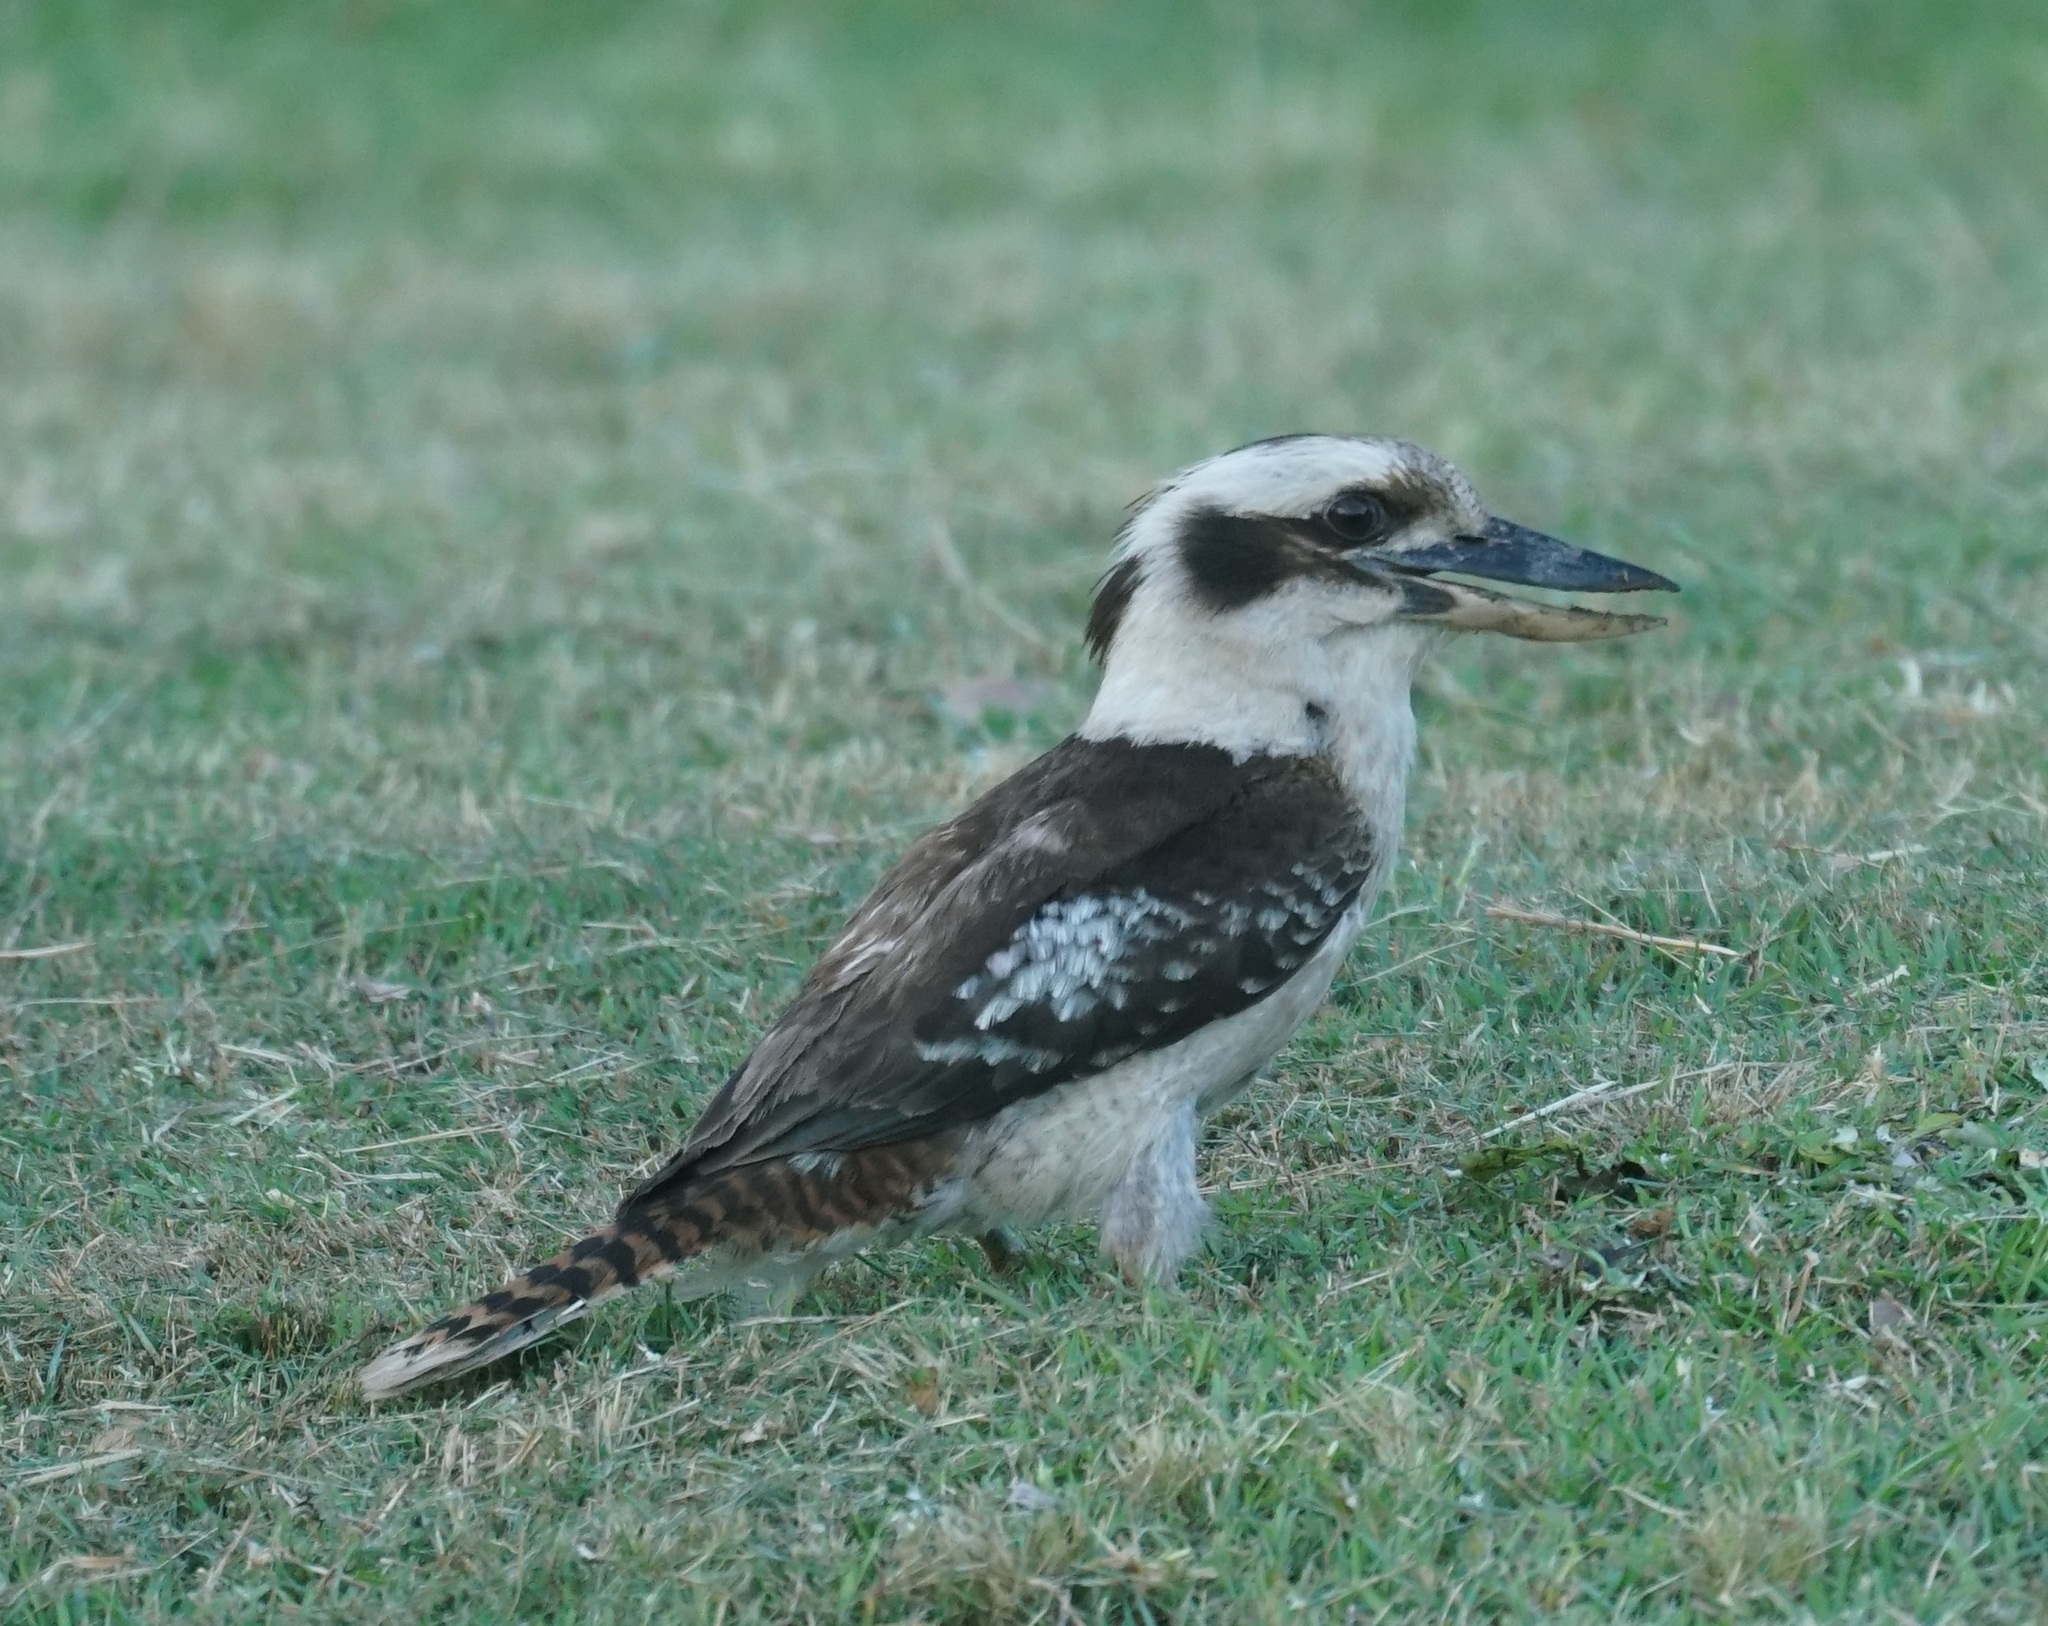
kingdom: Animalia
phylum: Chordata
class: Aves
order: Coraciiformes
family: Alcedinidae
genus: Dacelo
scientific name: Dacelo novaeguineae
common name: Laughing kookaburra
